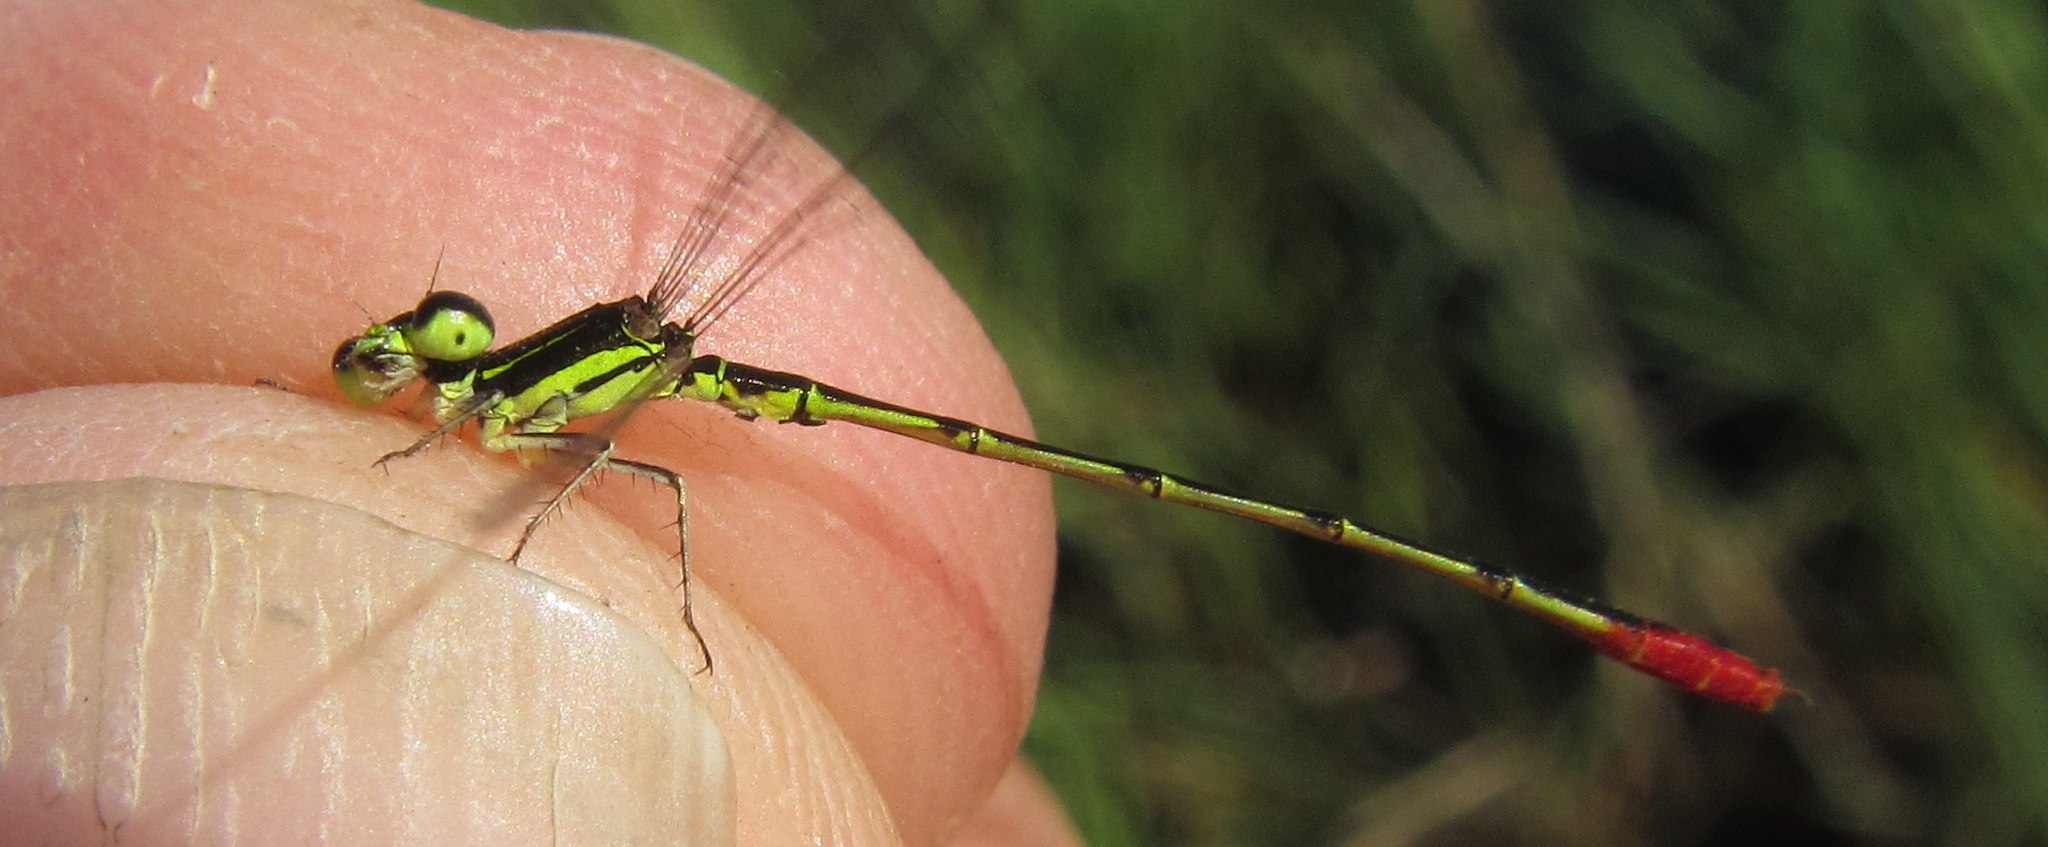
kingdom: Animalia
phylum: Arthropoda
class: Insecta
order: Odonata
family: Coenagrionidae
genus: Agriocnemis
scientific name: Agriocnemis victoria
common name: Lesser pincer-tailed wisp
